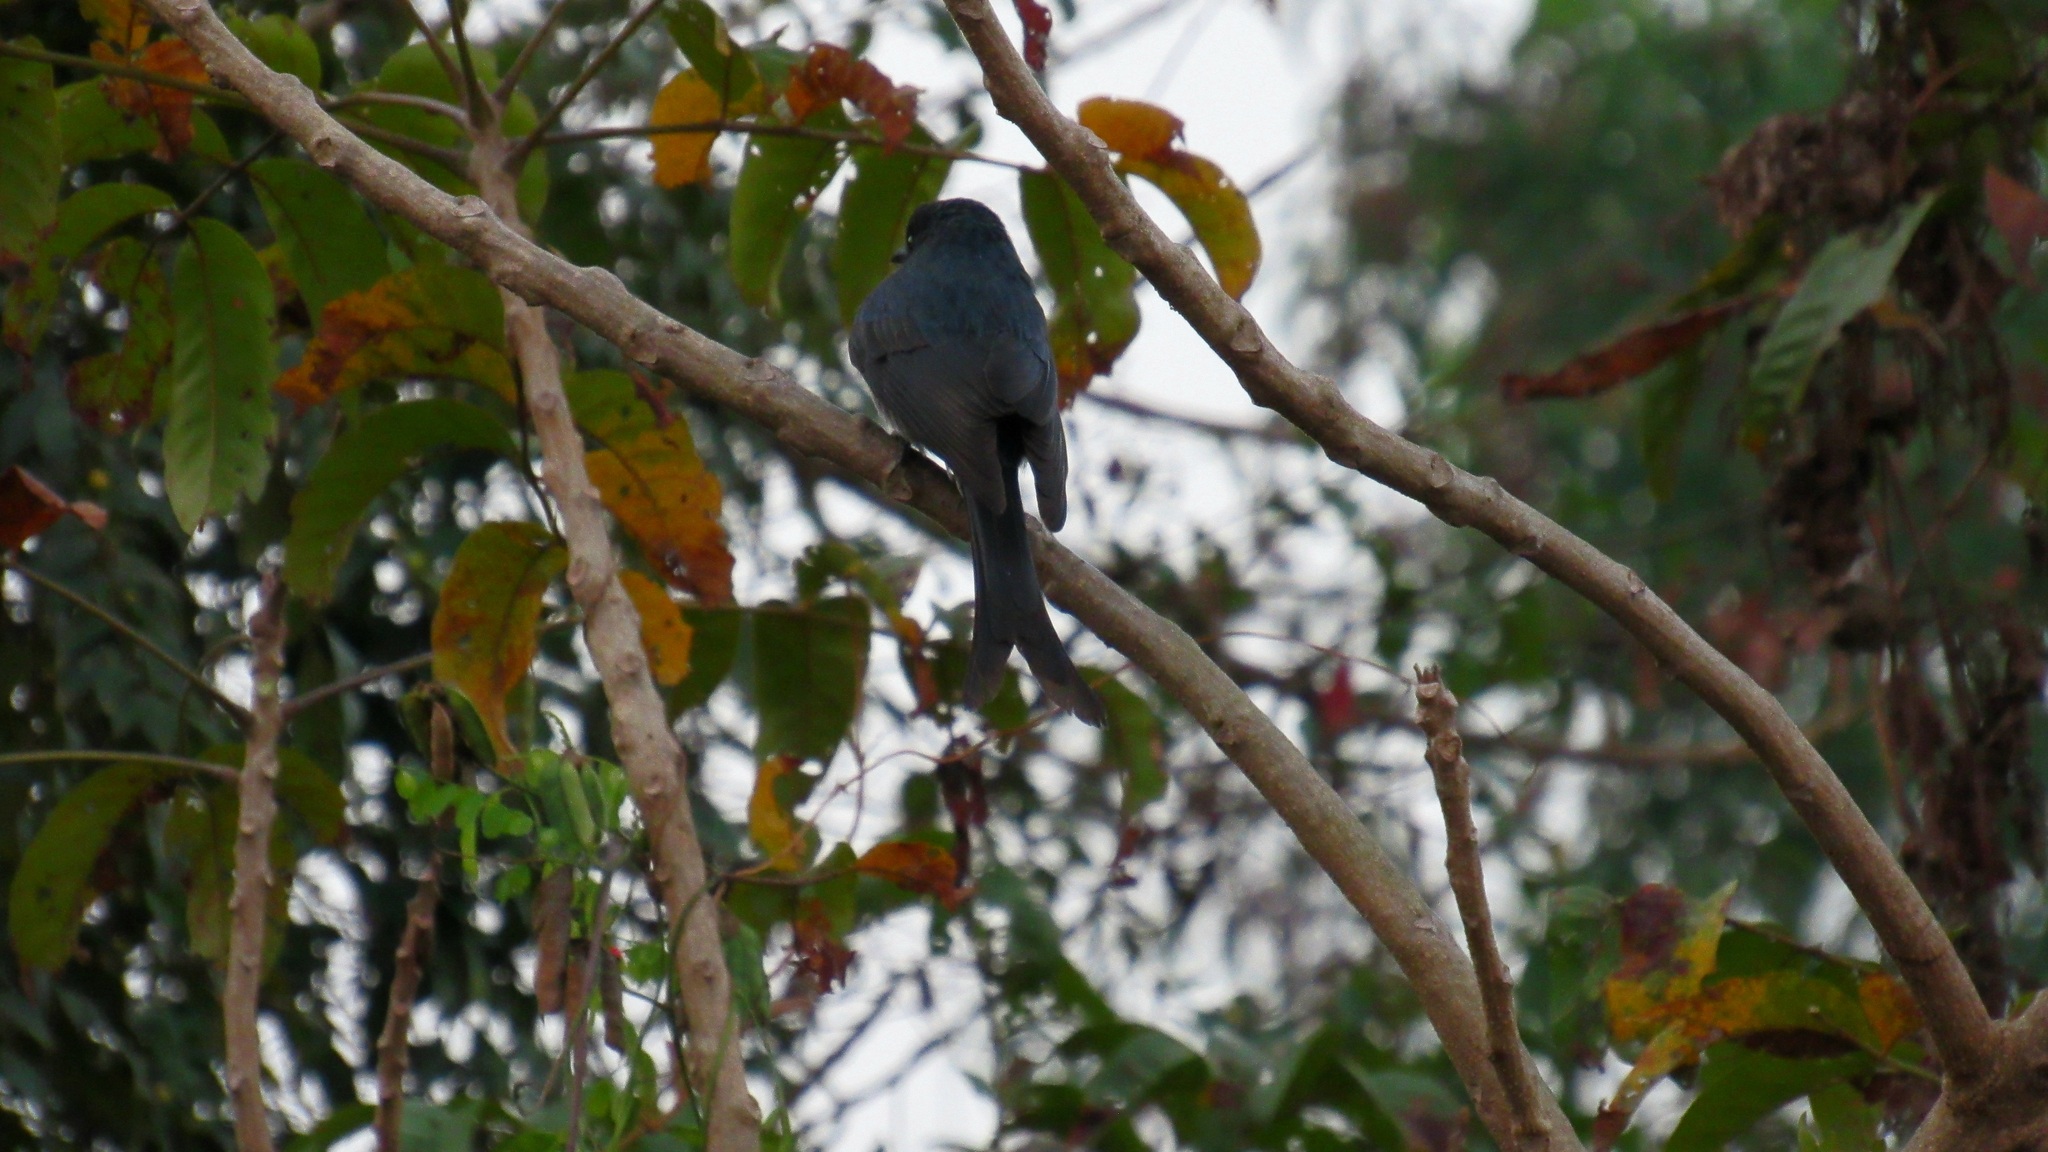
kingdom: Animalia
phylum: Chordata
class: Aves
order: Passeriformes
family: Dicruridae
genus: Dicrurus
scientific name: Dicrurus leucophaeus
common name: Ashy drongo
